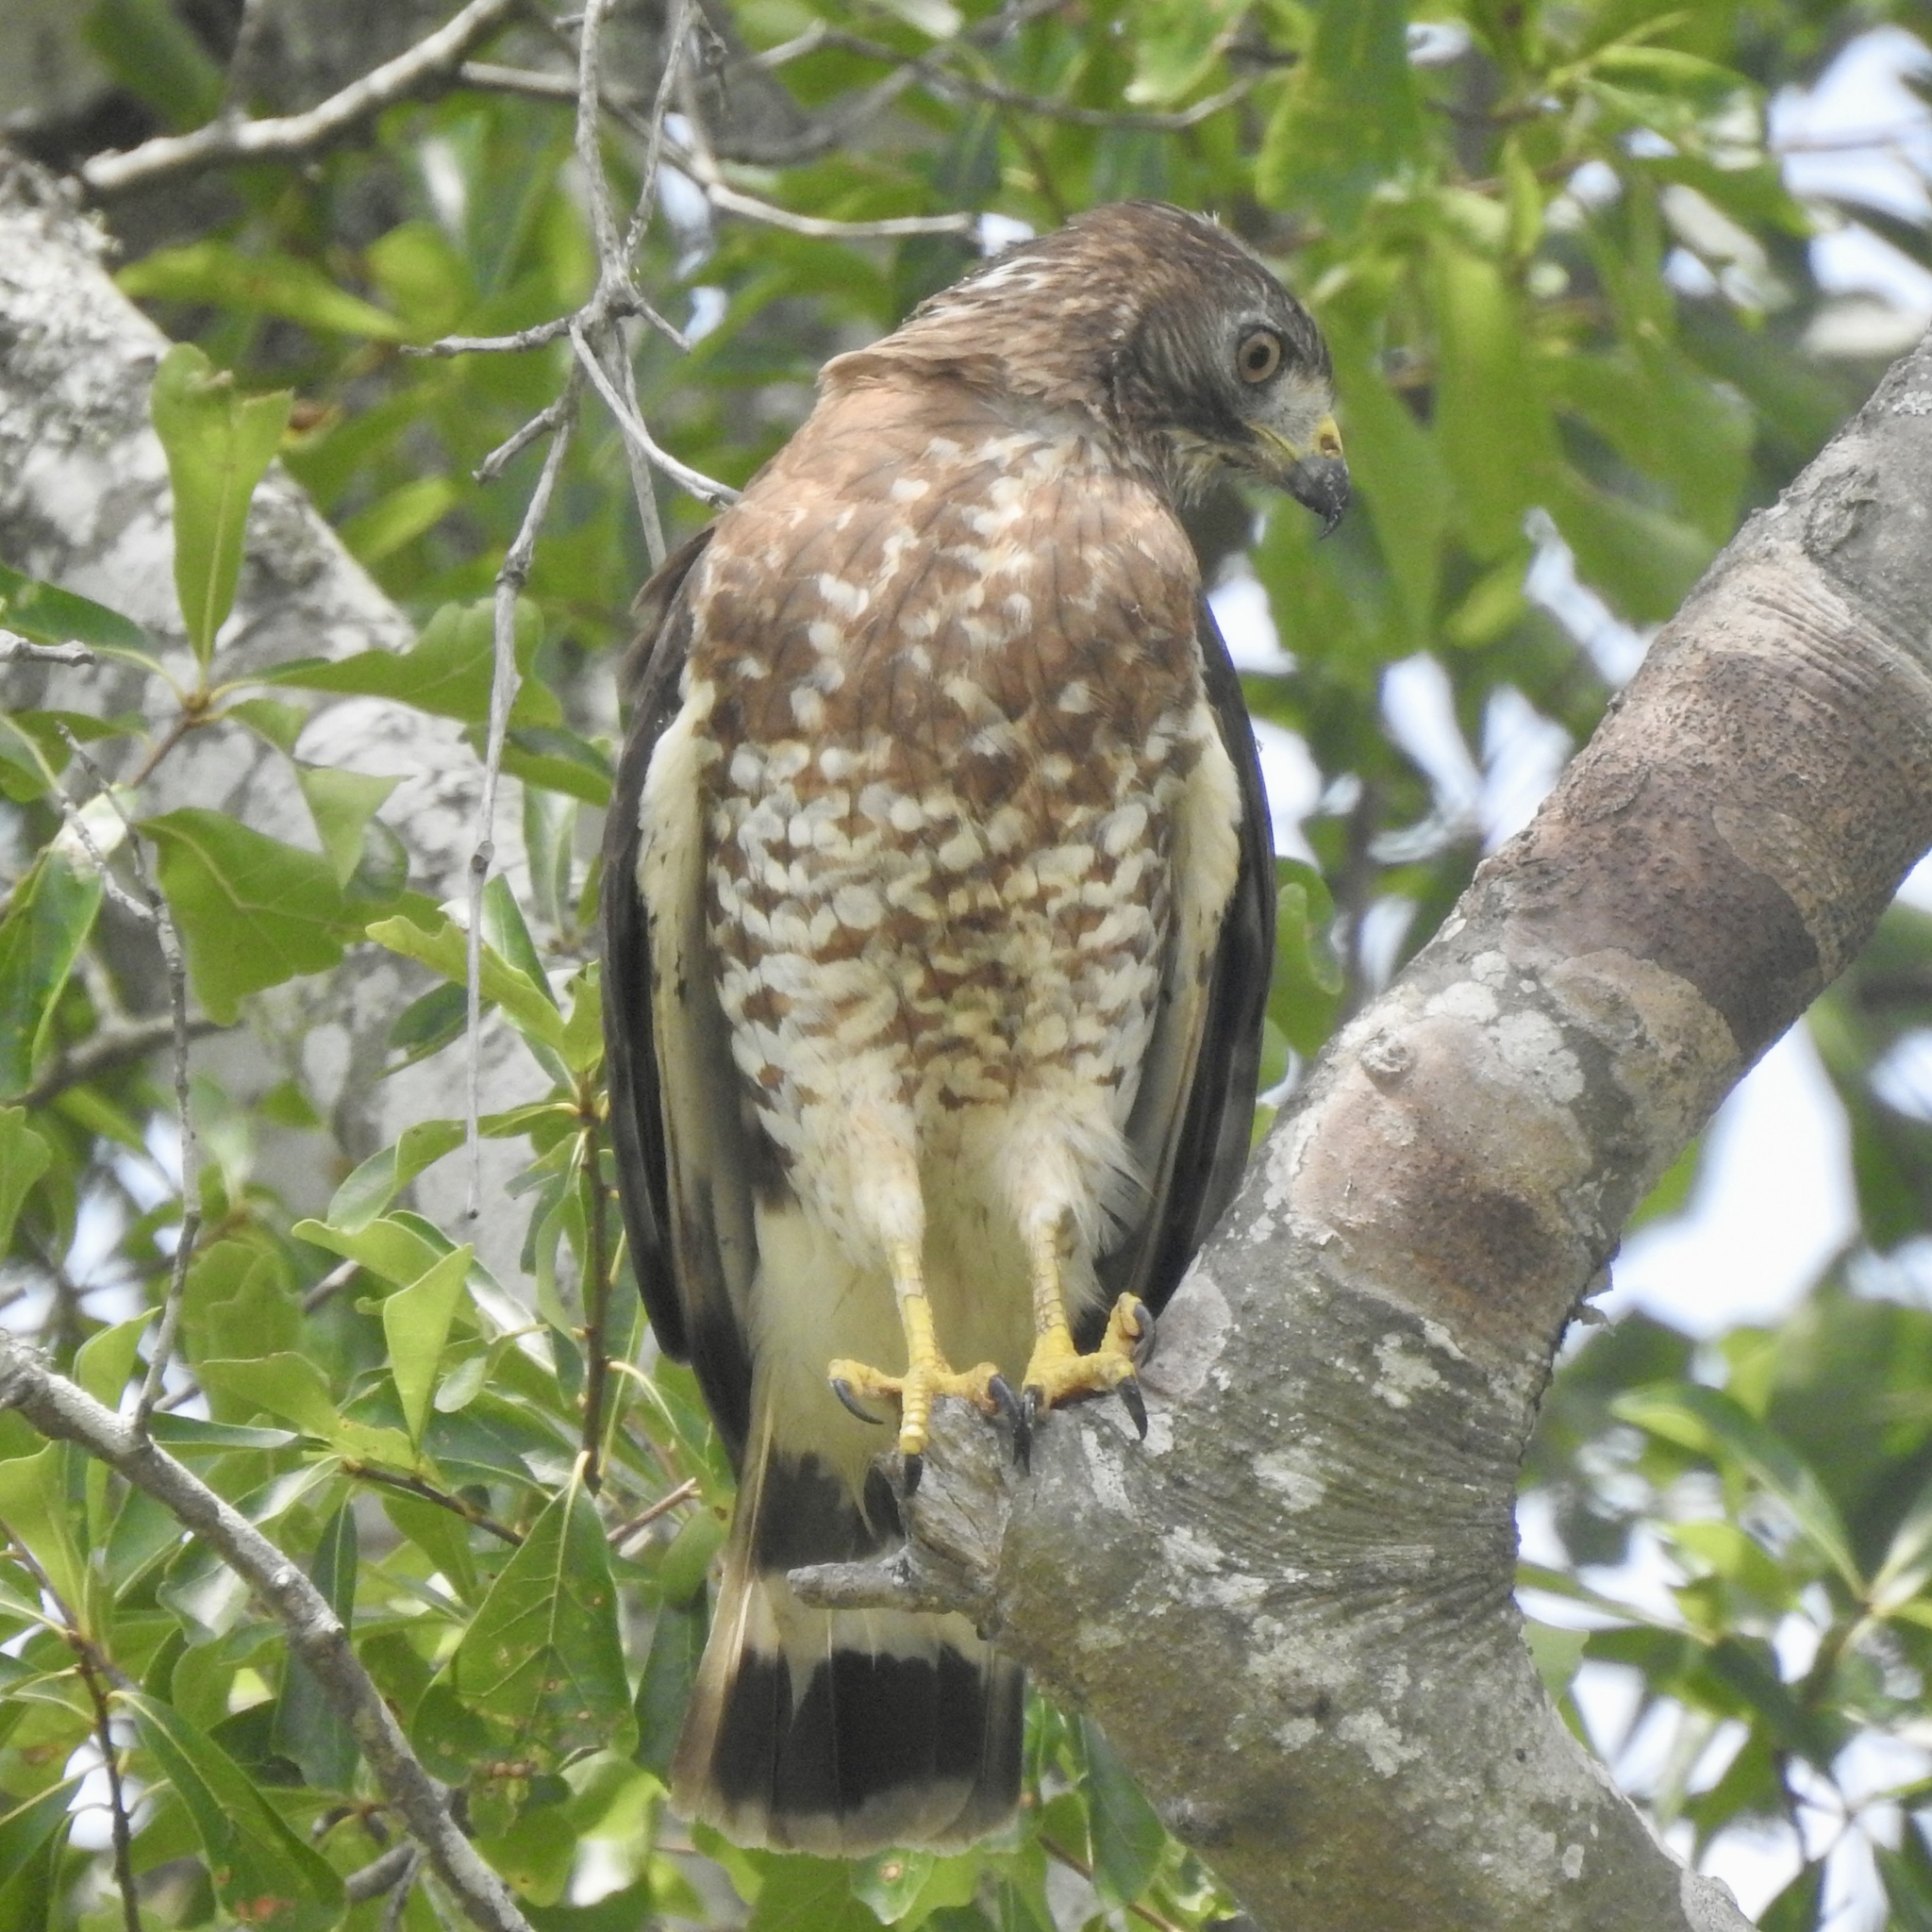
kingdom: Animalia
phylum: Chordata
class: Aves
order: Accipitriformes
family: Accipitridae
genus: Buteo
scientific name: Buteo platypterus
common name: Broad-winged hawk
